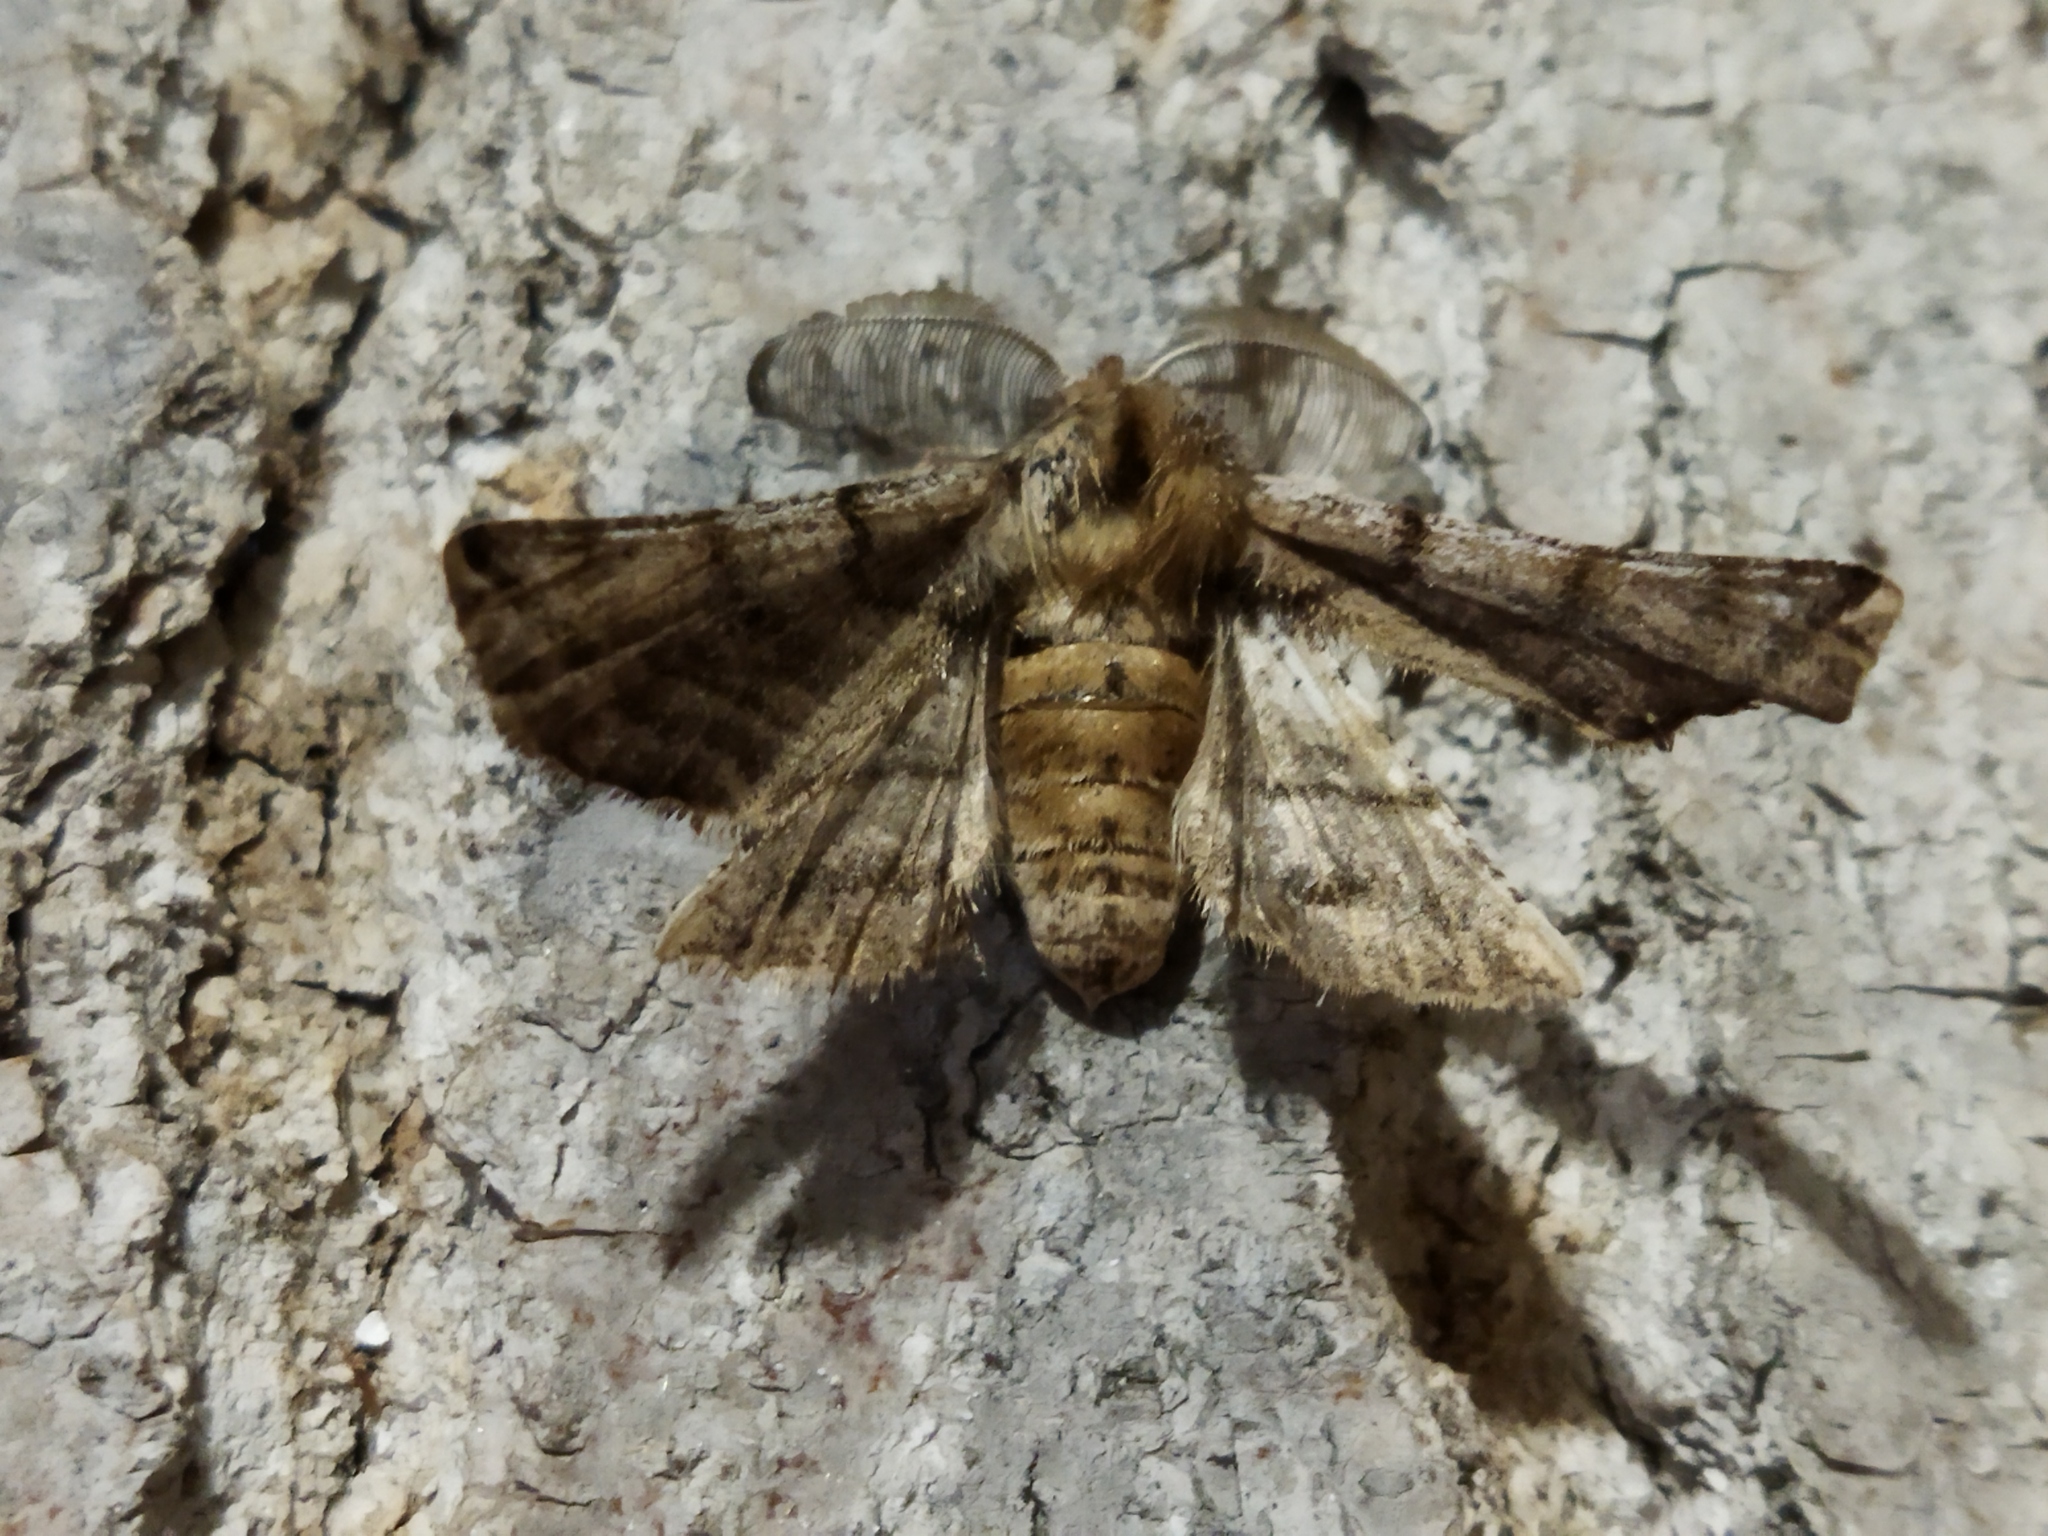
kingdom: Animalia
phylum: Arthropoda
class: Insecta
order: Lepidoptera
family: Geometridae
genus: Apochima
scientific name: Apochima flabellaria
